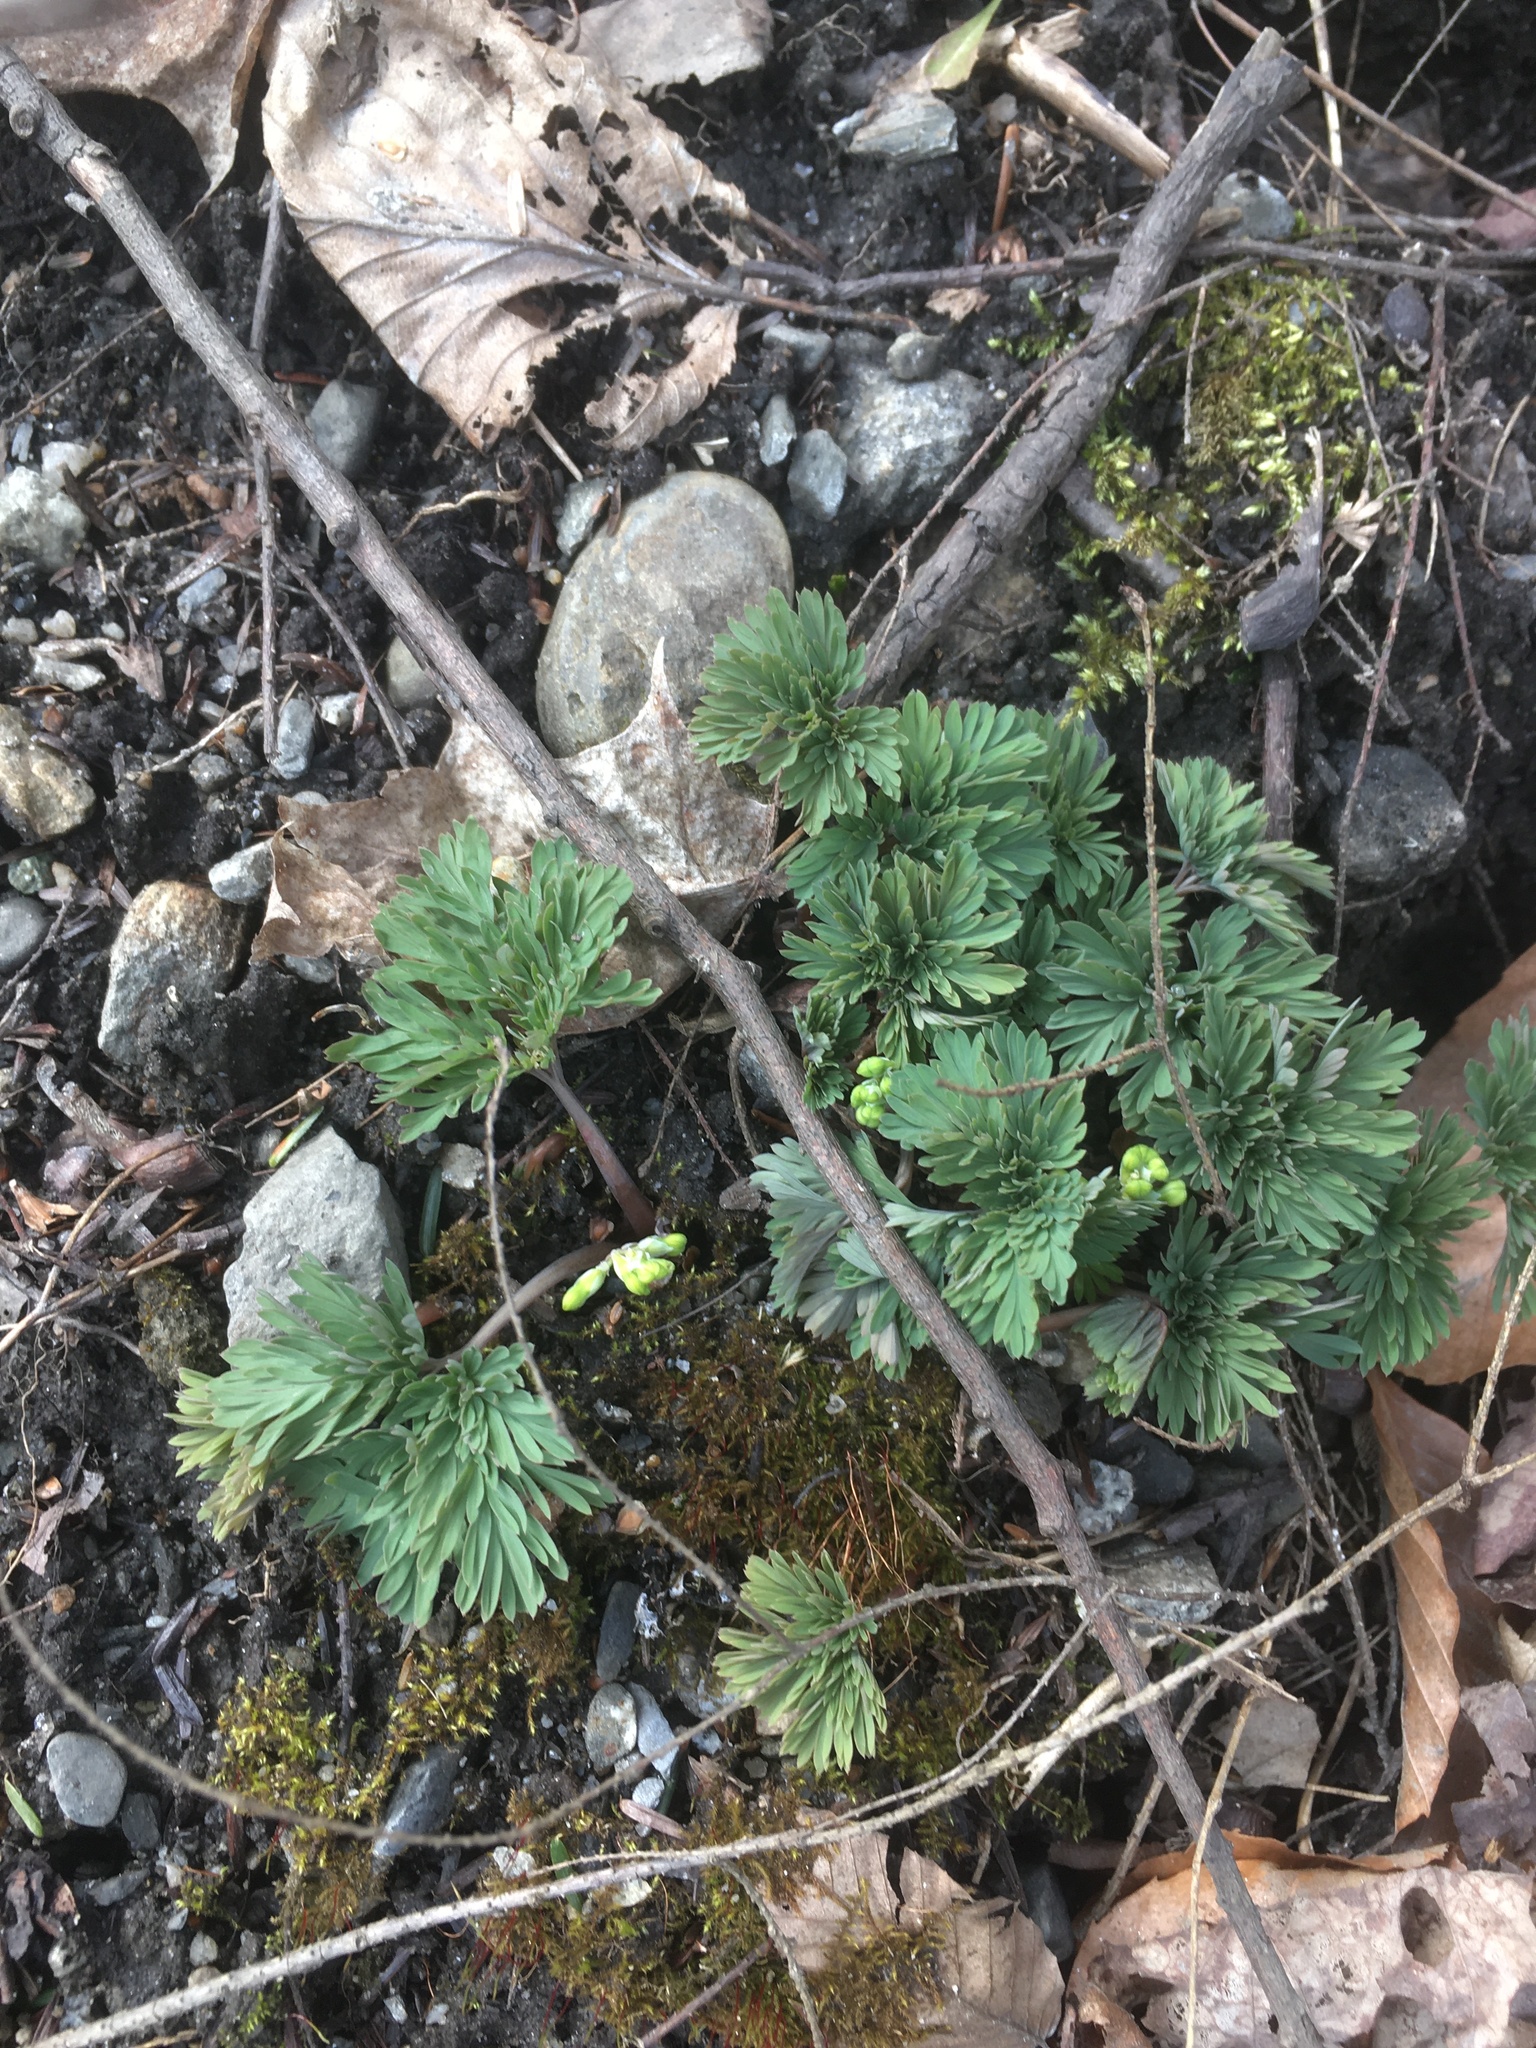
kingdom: Plantae
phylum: Tracheophyta
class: Magnoliopsida
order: Ranunculales
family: Papaveraceae
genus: Dicentra
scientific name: Dicentra canadensis
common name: Squirrel-corn
